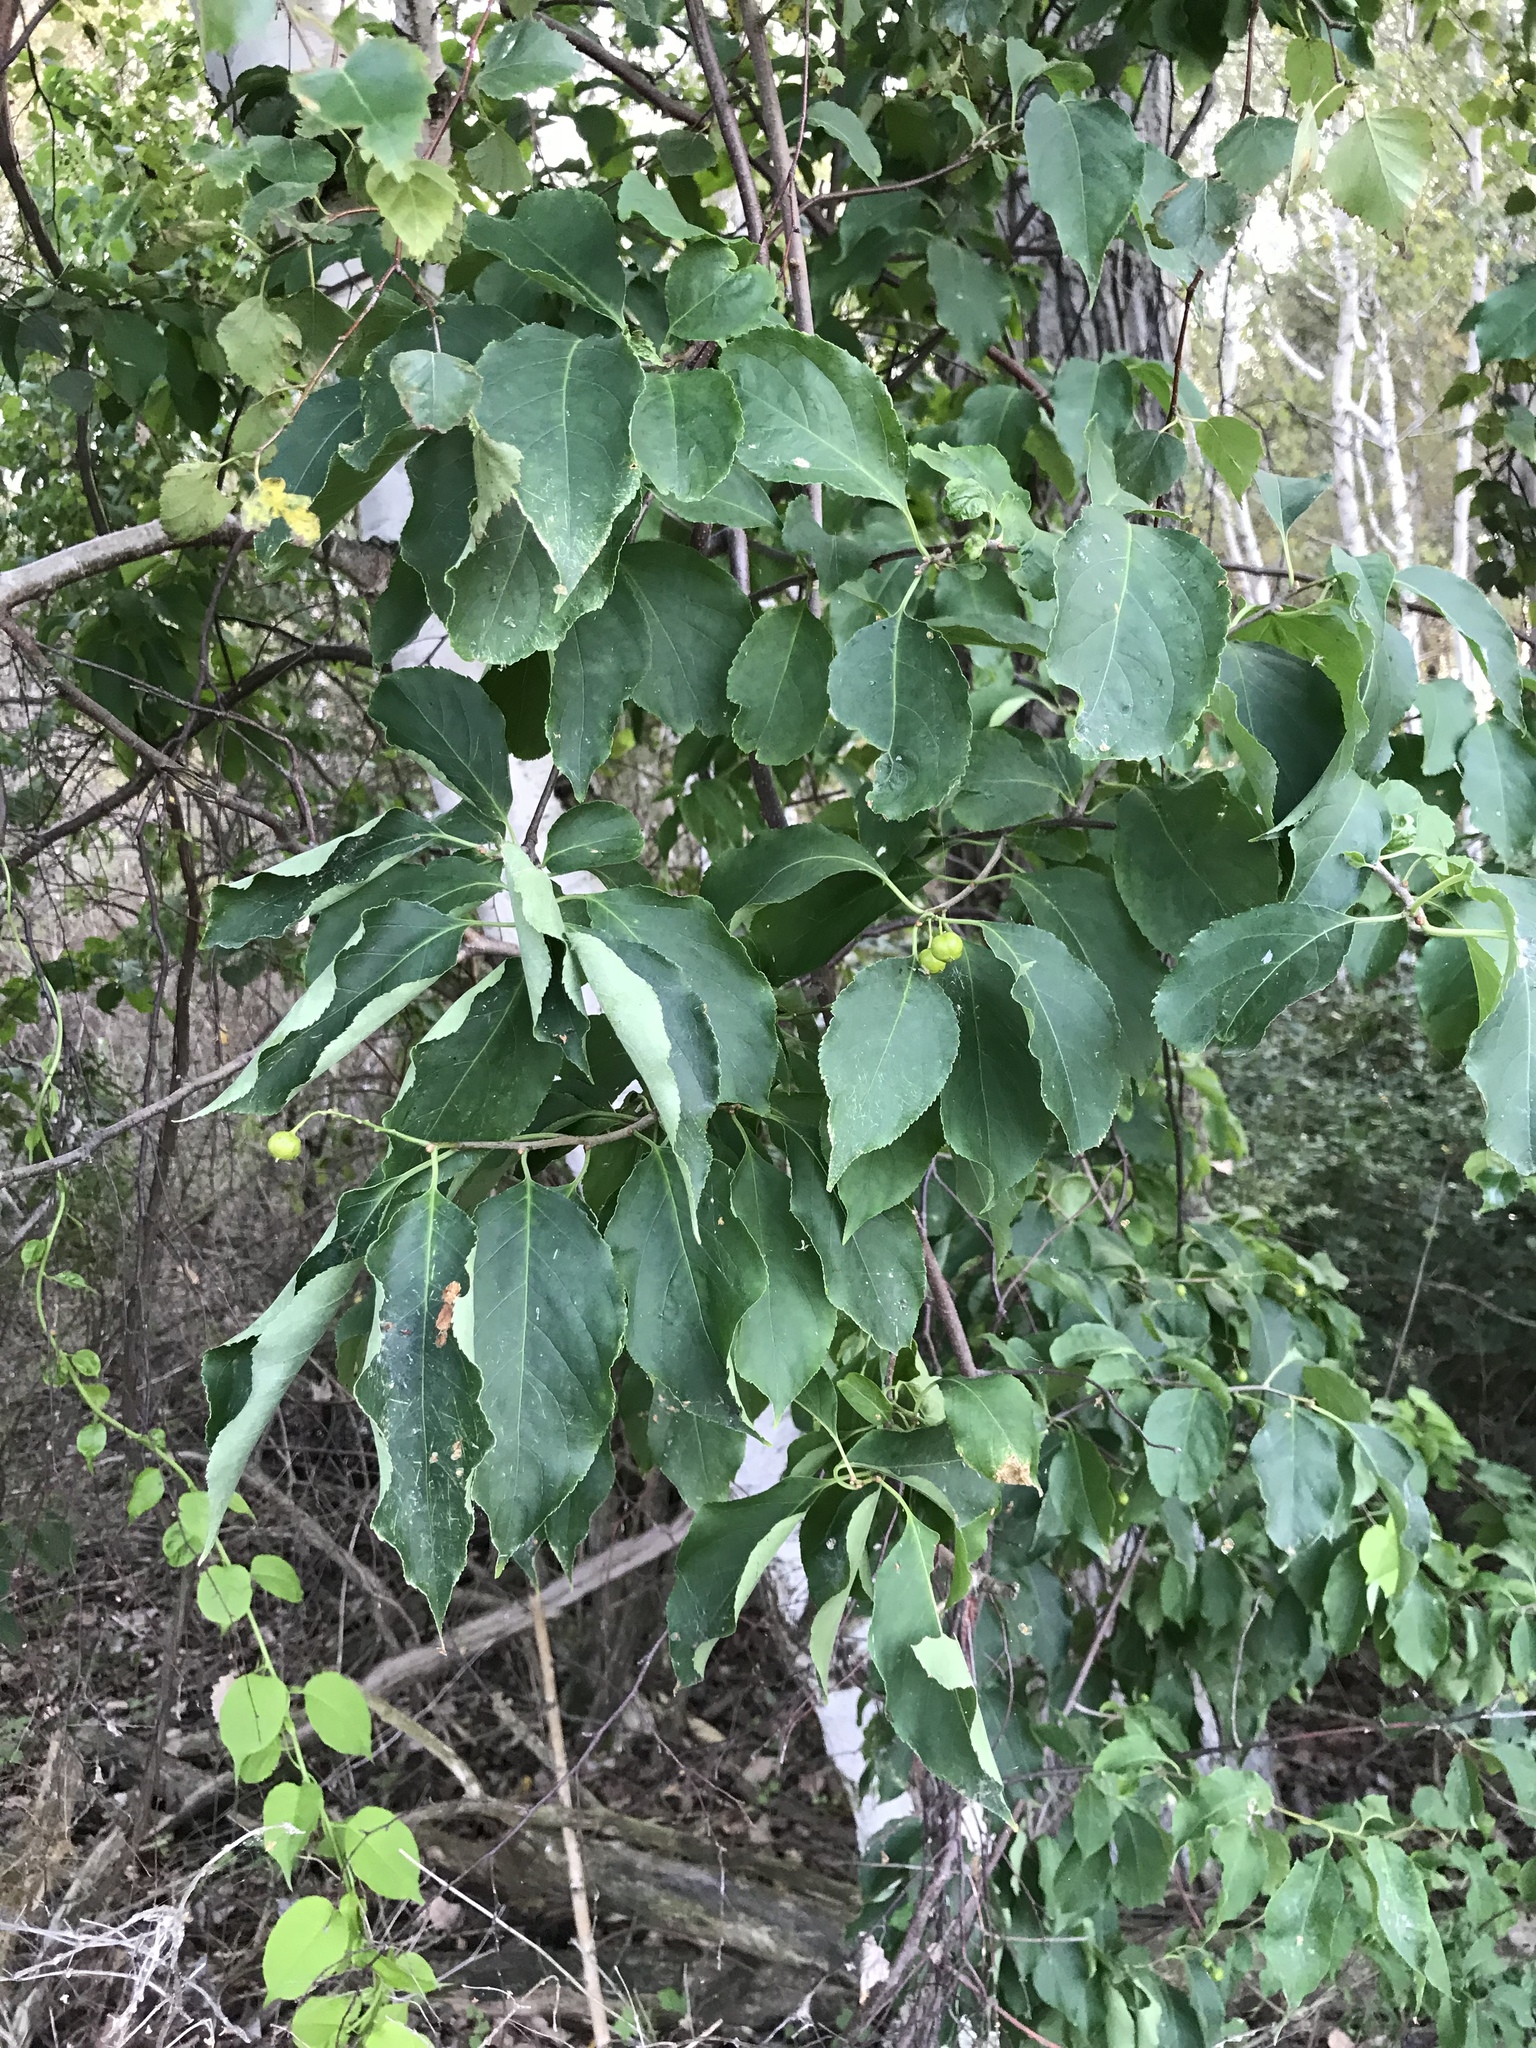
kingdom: Plantae
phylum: Tracheophyta
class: Magnoliopsida
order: Celastrales
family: Celastraceae
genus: Celastrus
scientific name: Celastrus scandens
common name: American bittersweet
